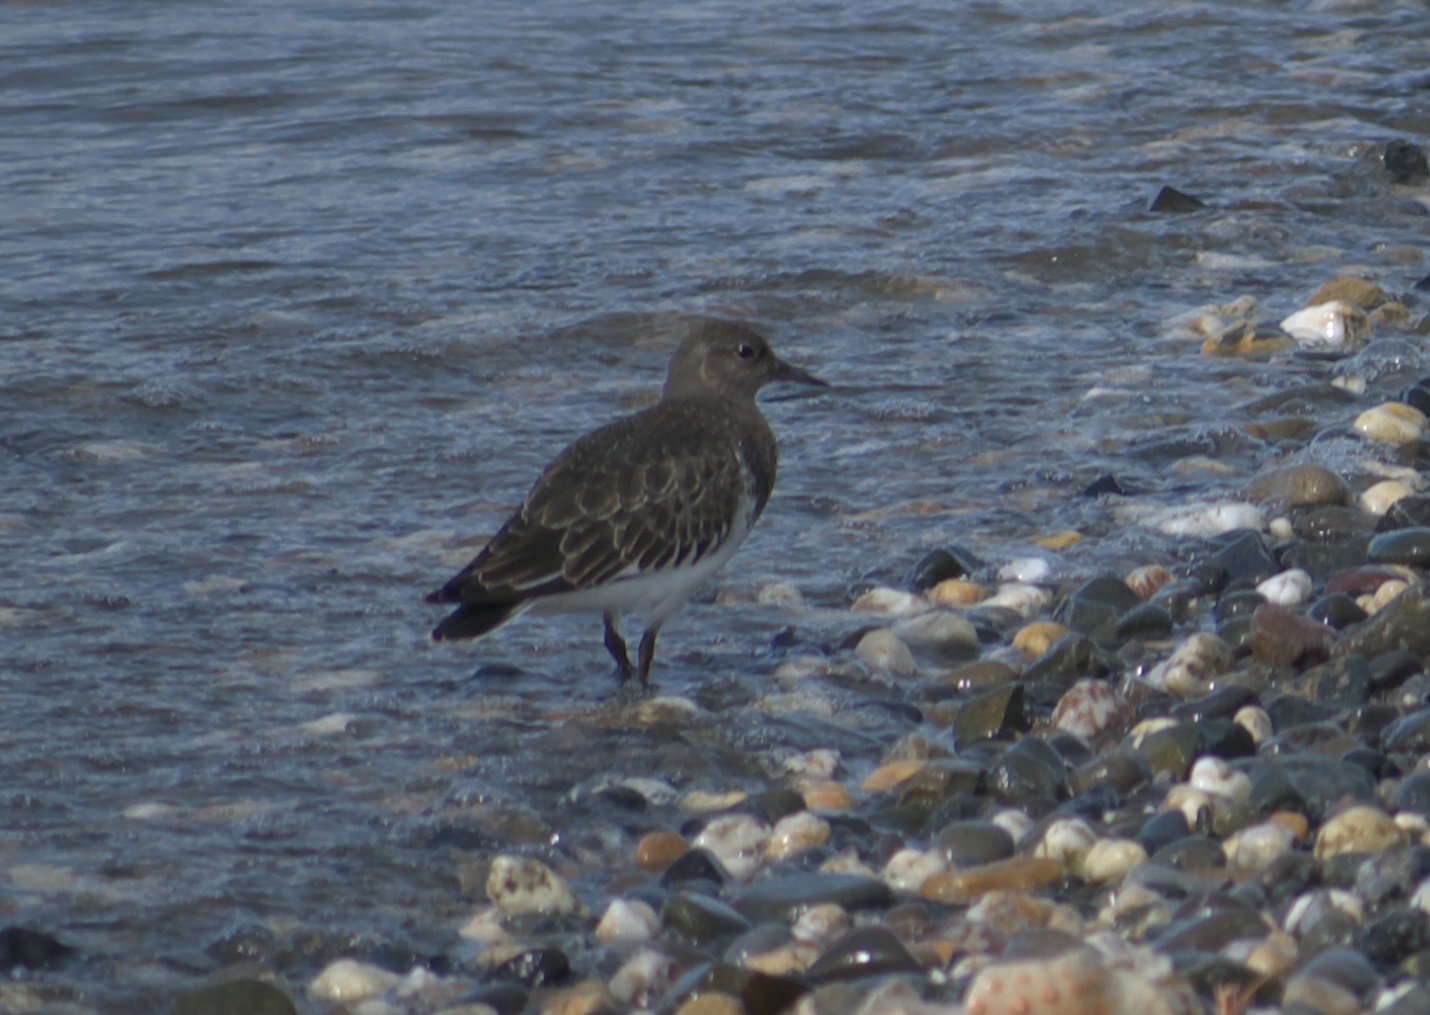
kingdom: Animalia
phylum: Chordata
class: Aves
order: Charadriiformes
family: Scolopacidae
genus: Calidris
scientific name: Calidris virgata
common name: Surfbird
